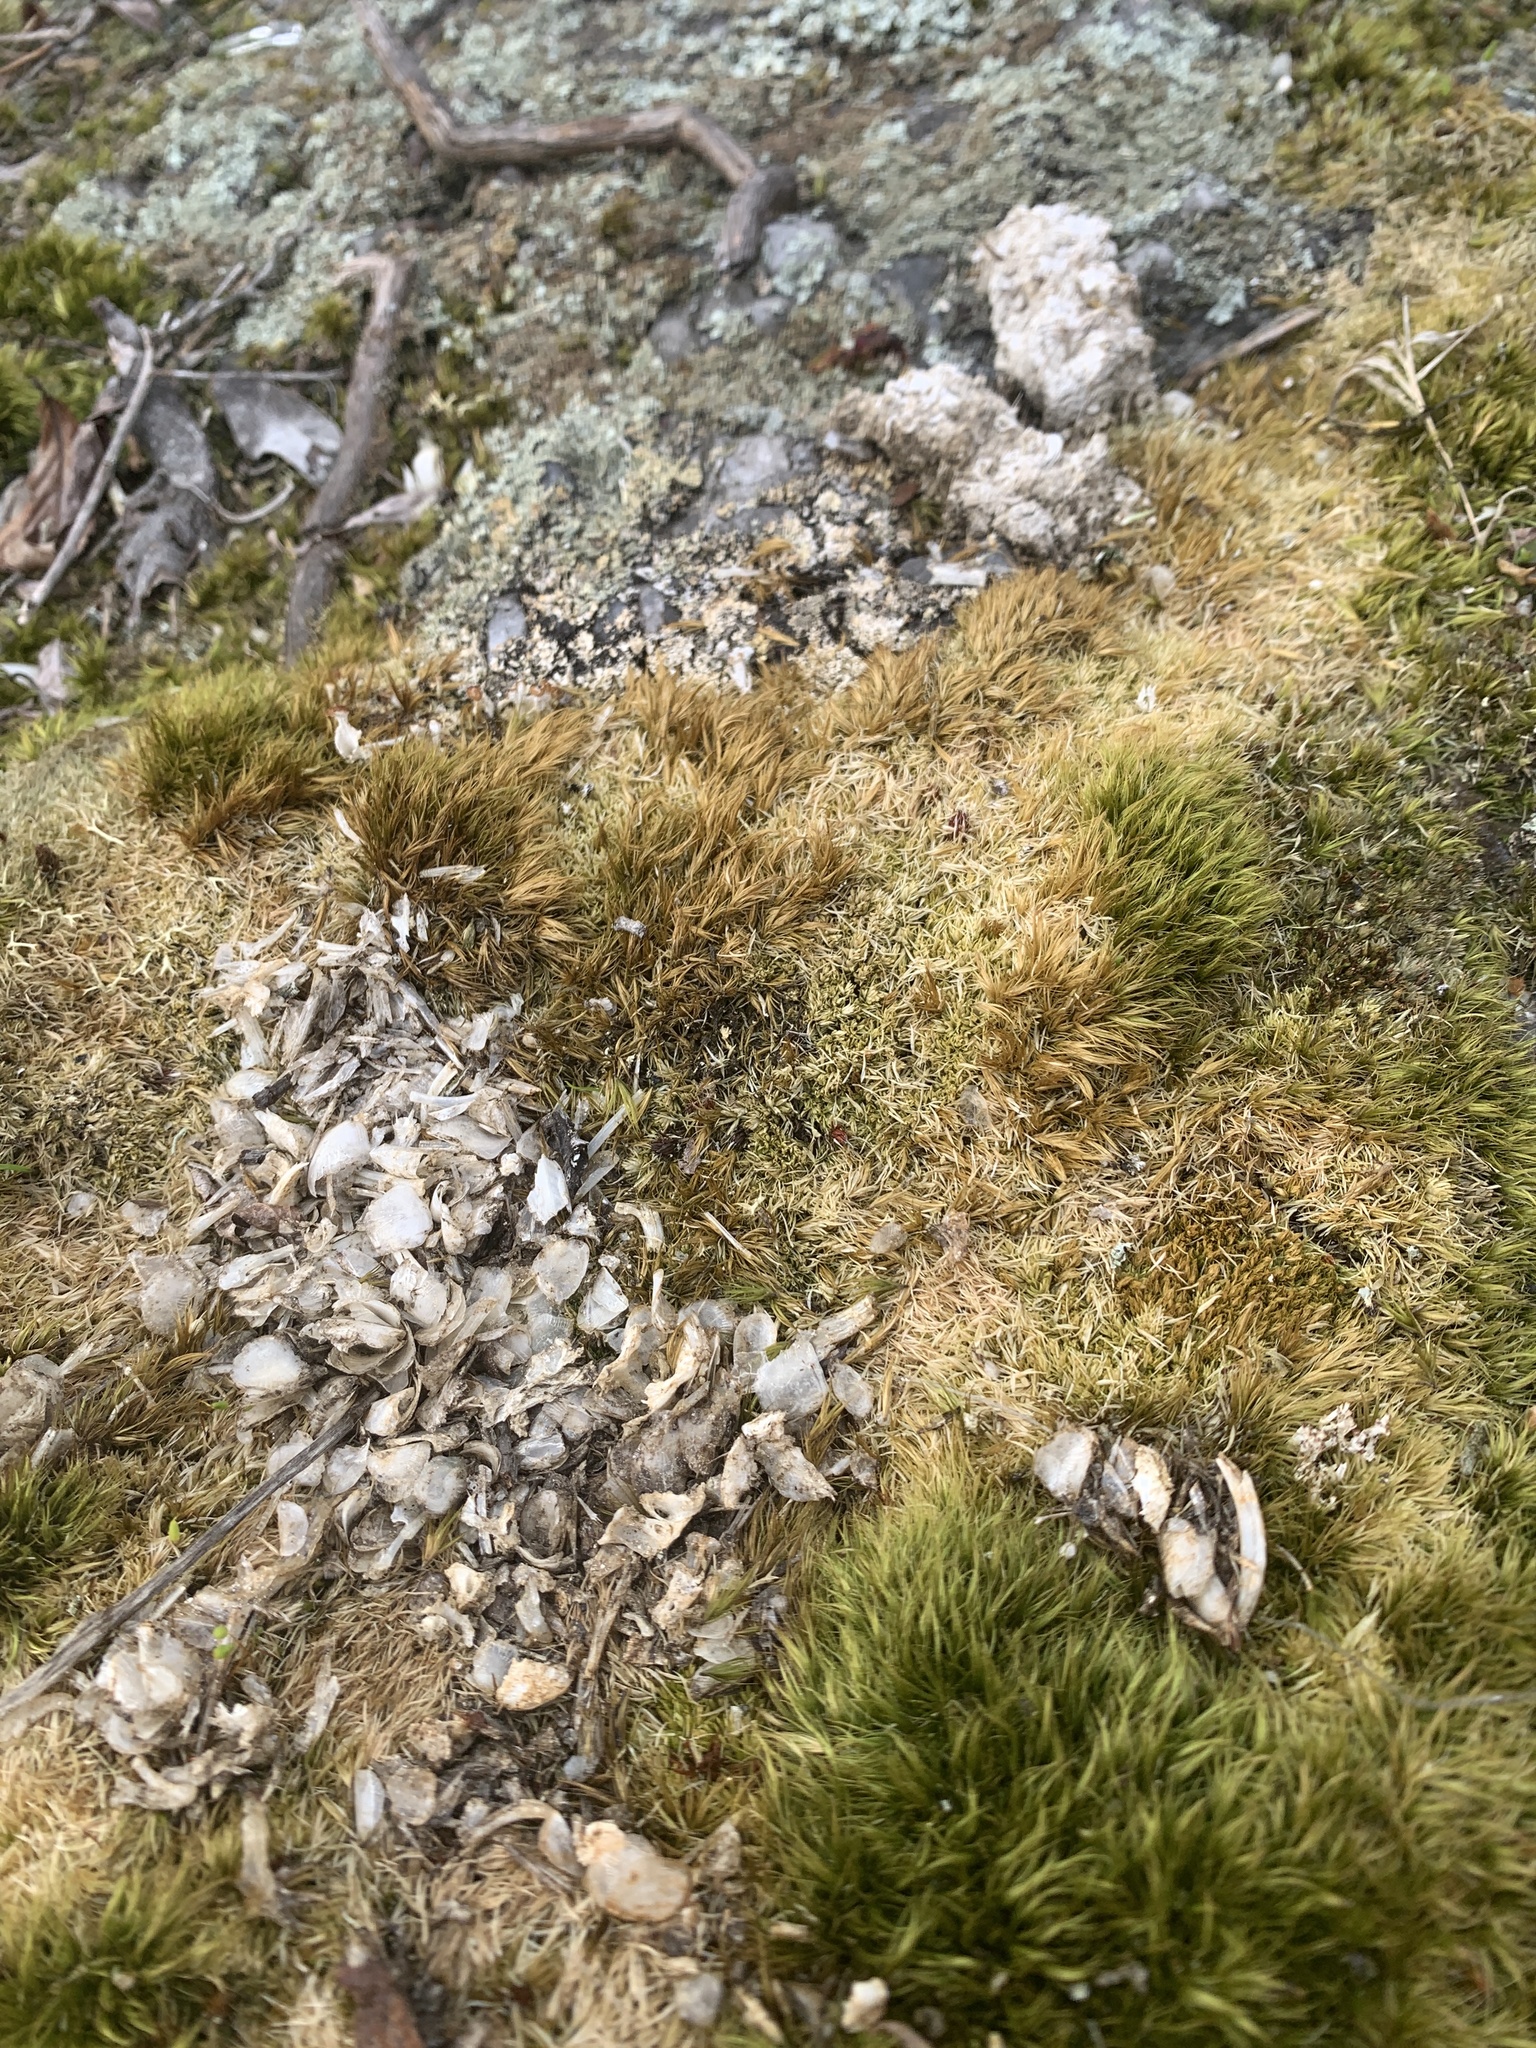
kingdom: Animalia
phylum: Chordata
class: Mammalia
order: Carnivora
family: Mustelidae
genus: Lontra
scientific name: Lontra canadensis
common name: North american river otter
